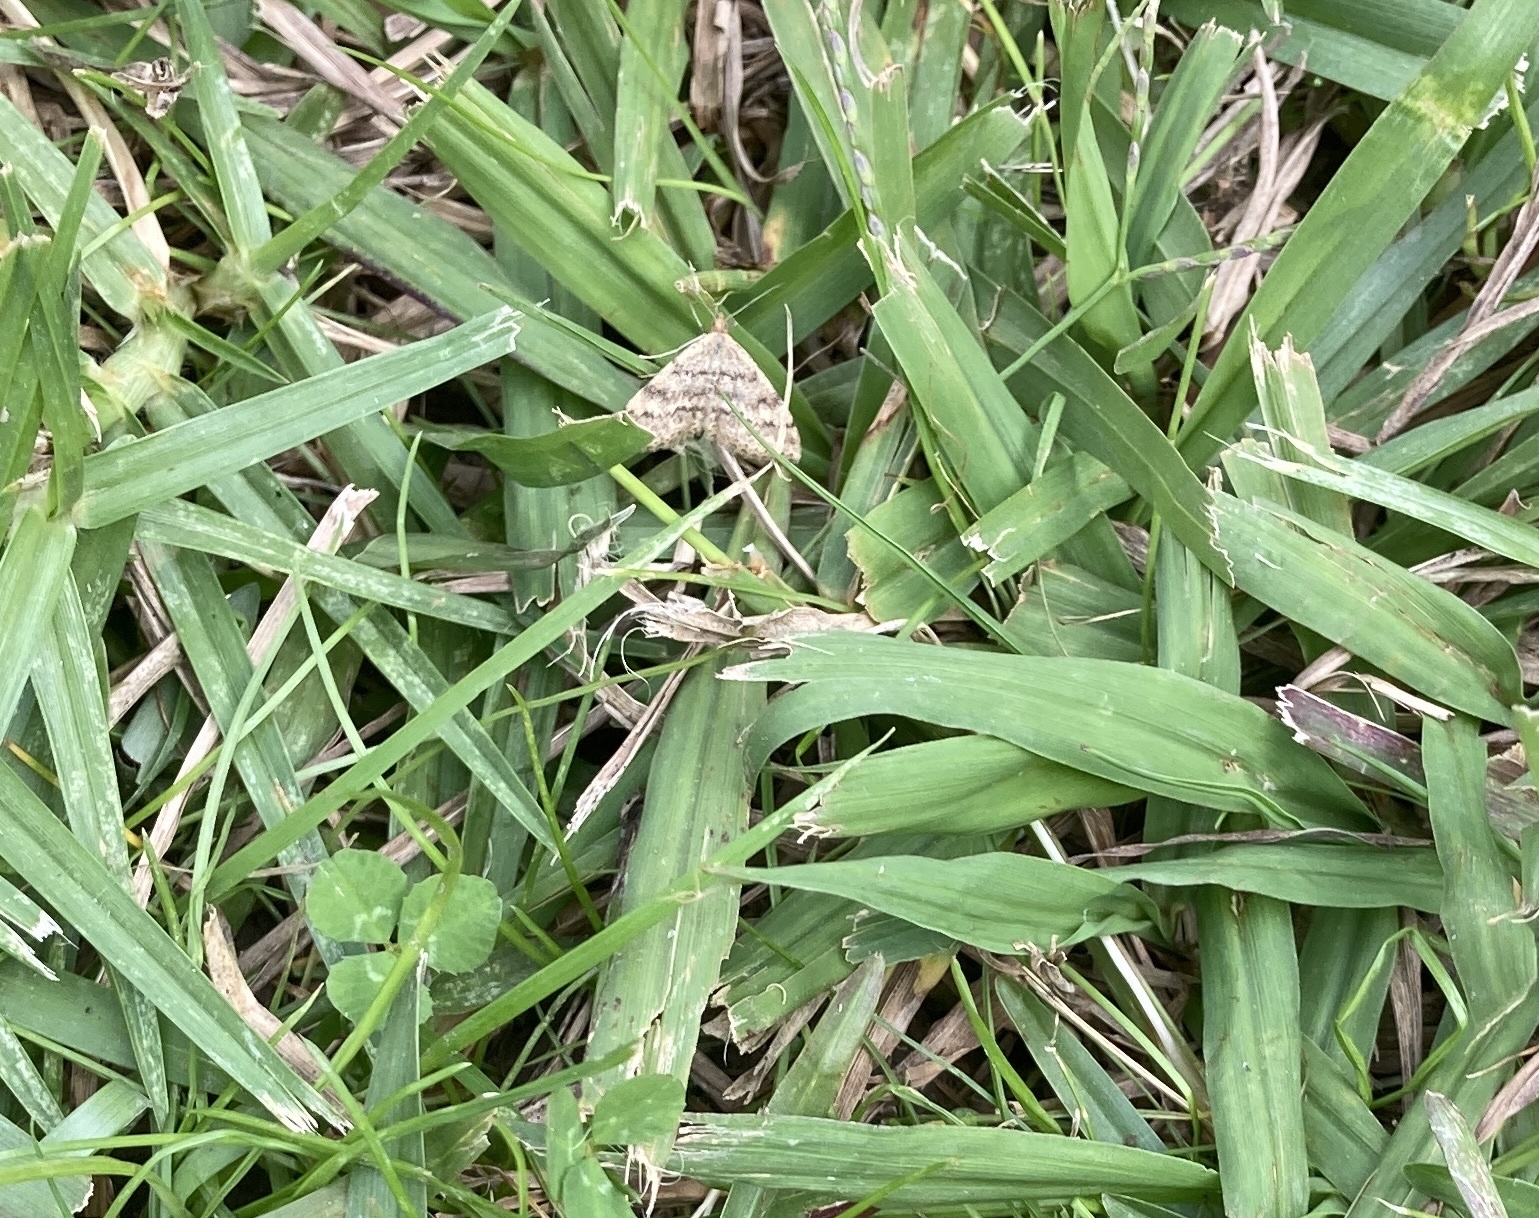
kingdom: Animalia
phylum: Arthropoda
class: Insecta
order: Lepidoptera
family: Geometridae
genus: Scopula
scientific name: Scopula rubraria
